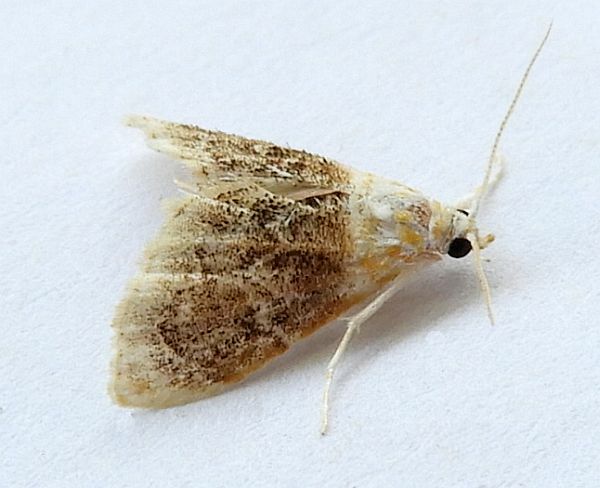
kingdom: Animalia
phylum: Arthropoda
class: Insecta
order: Lepidoptera
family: Crambidae
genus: Lipocosma
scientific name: Lipocosma polingi
